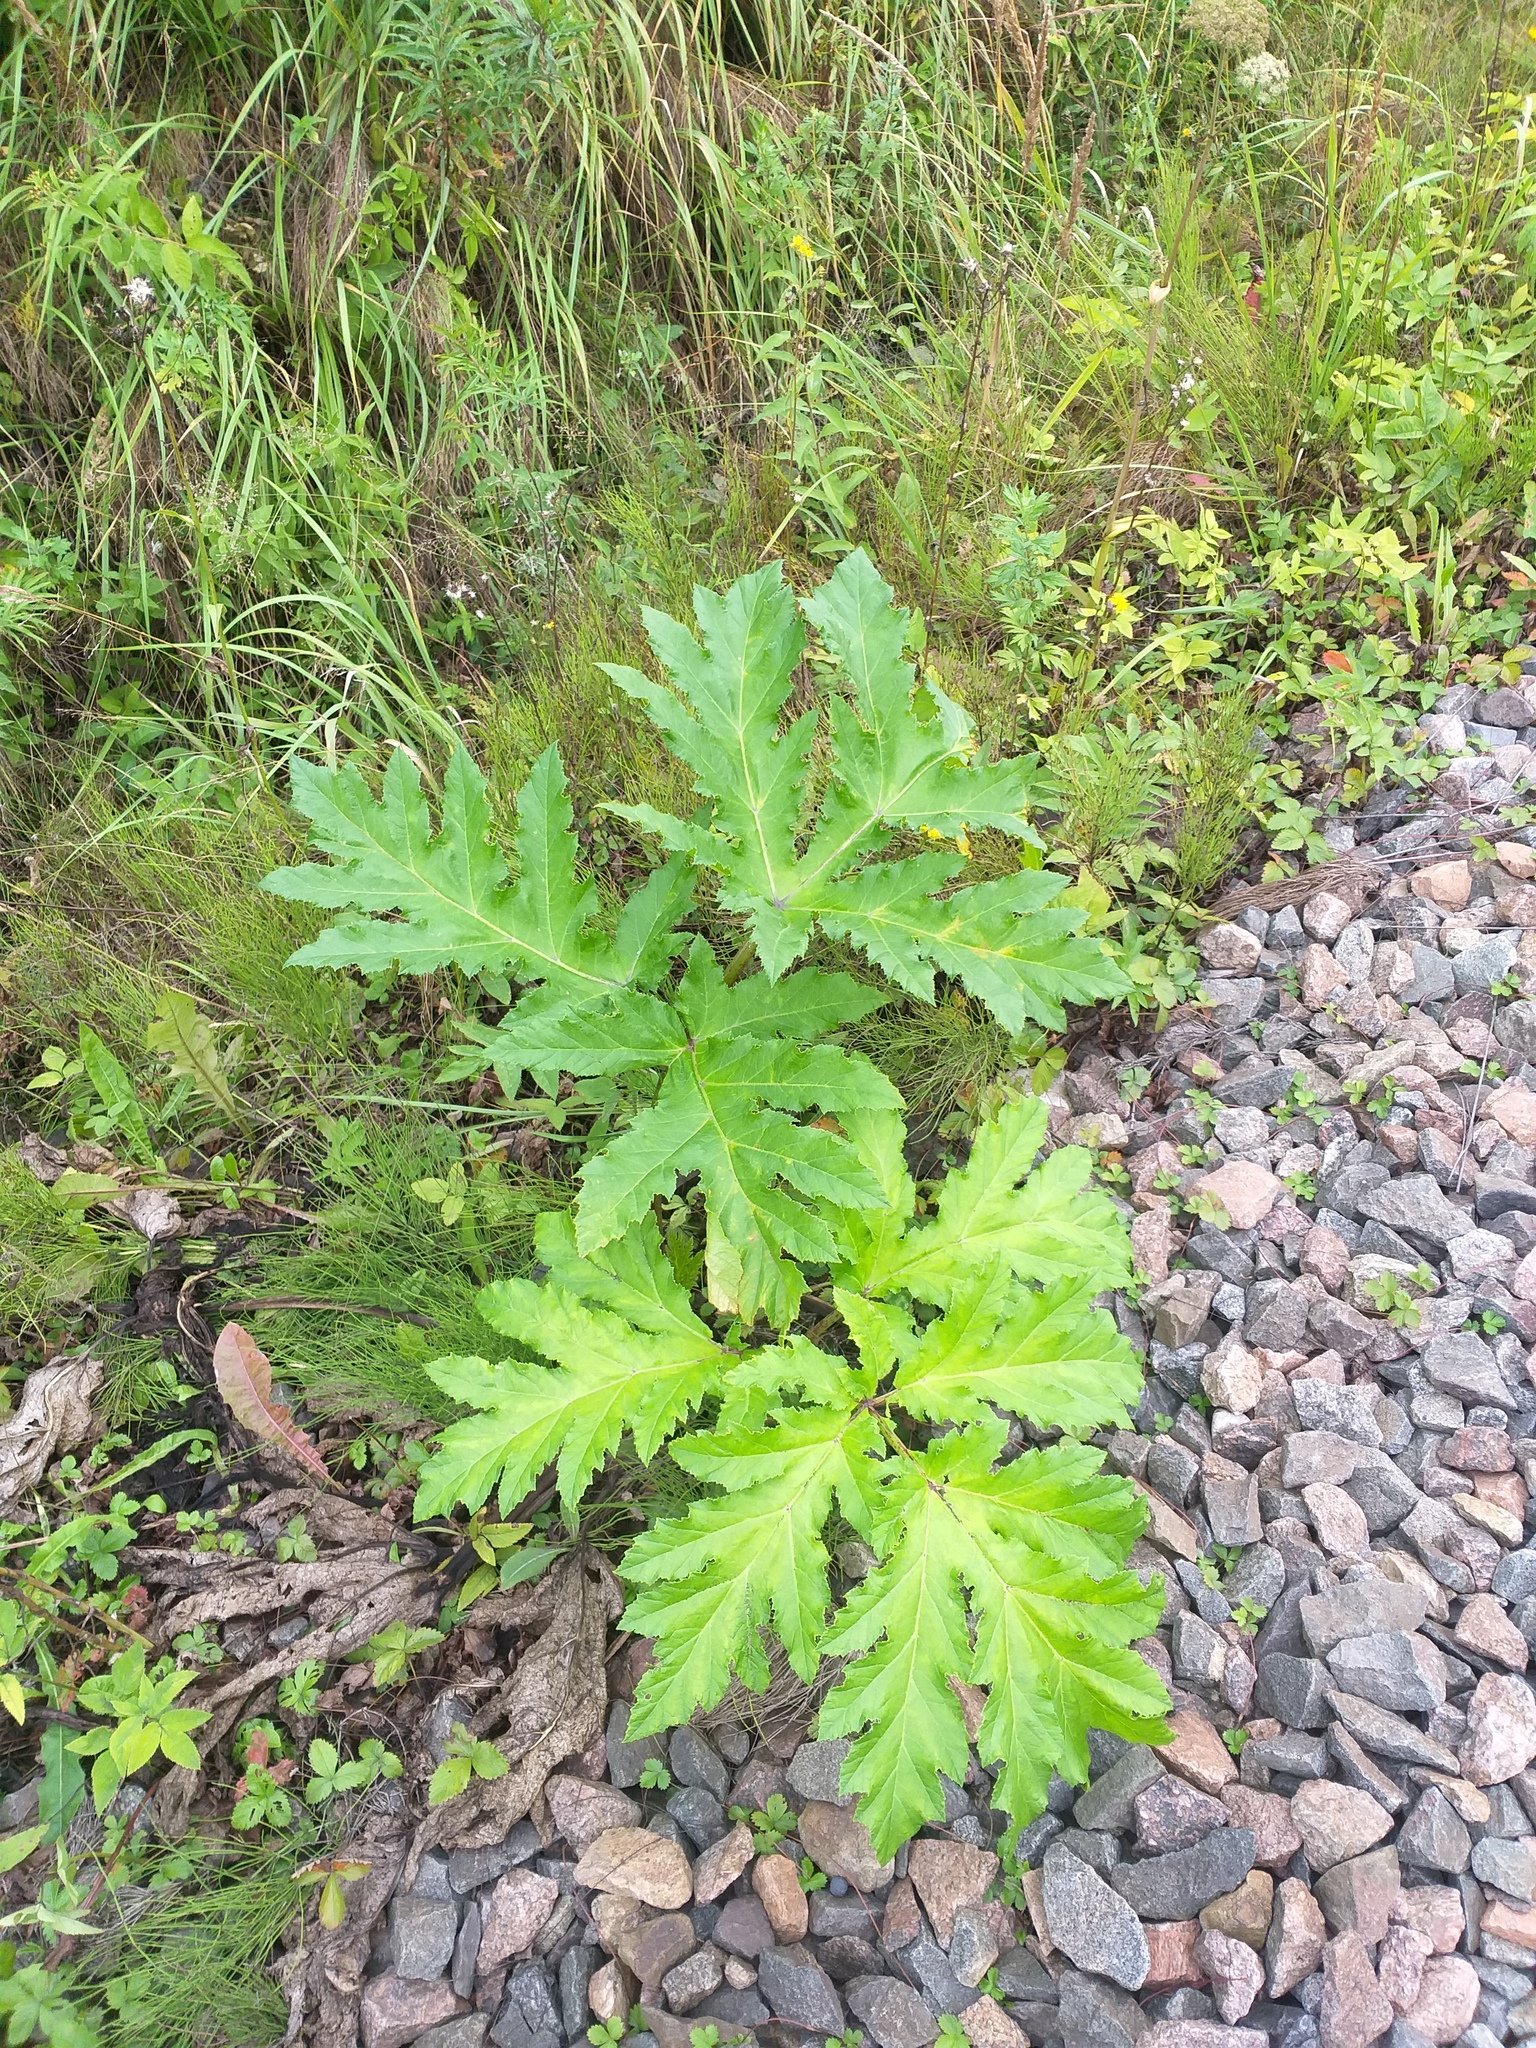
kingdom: Plantae
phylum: Tracheophyta
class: Magnoliopsida
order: Apiales
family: Apiaceae
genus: Heracleum
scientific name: Heracleum sosnowskyi
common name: Sosnowsky's hogweed
